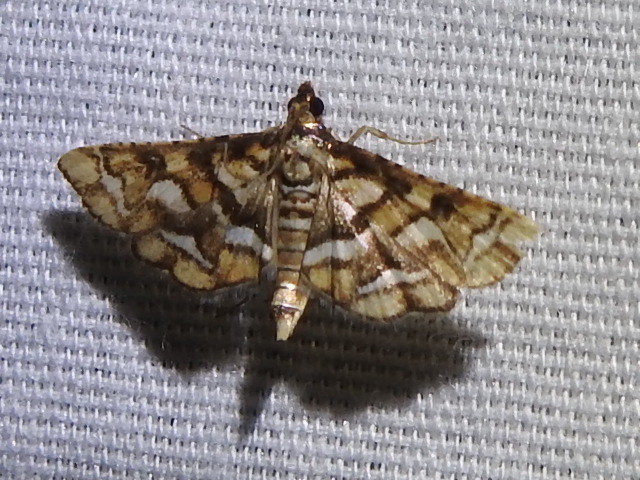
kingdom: Animalia
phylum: Arthropoda
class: Insecta
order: Lepidoptera
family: Crambidae
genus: Hileithia
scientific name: Hileithia magualis
